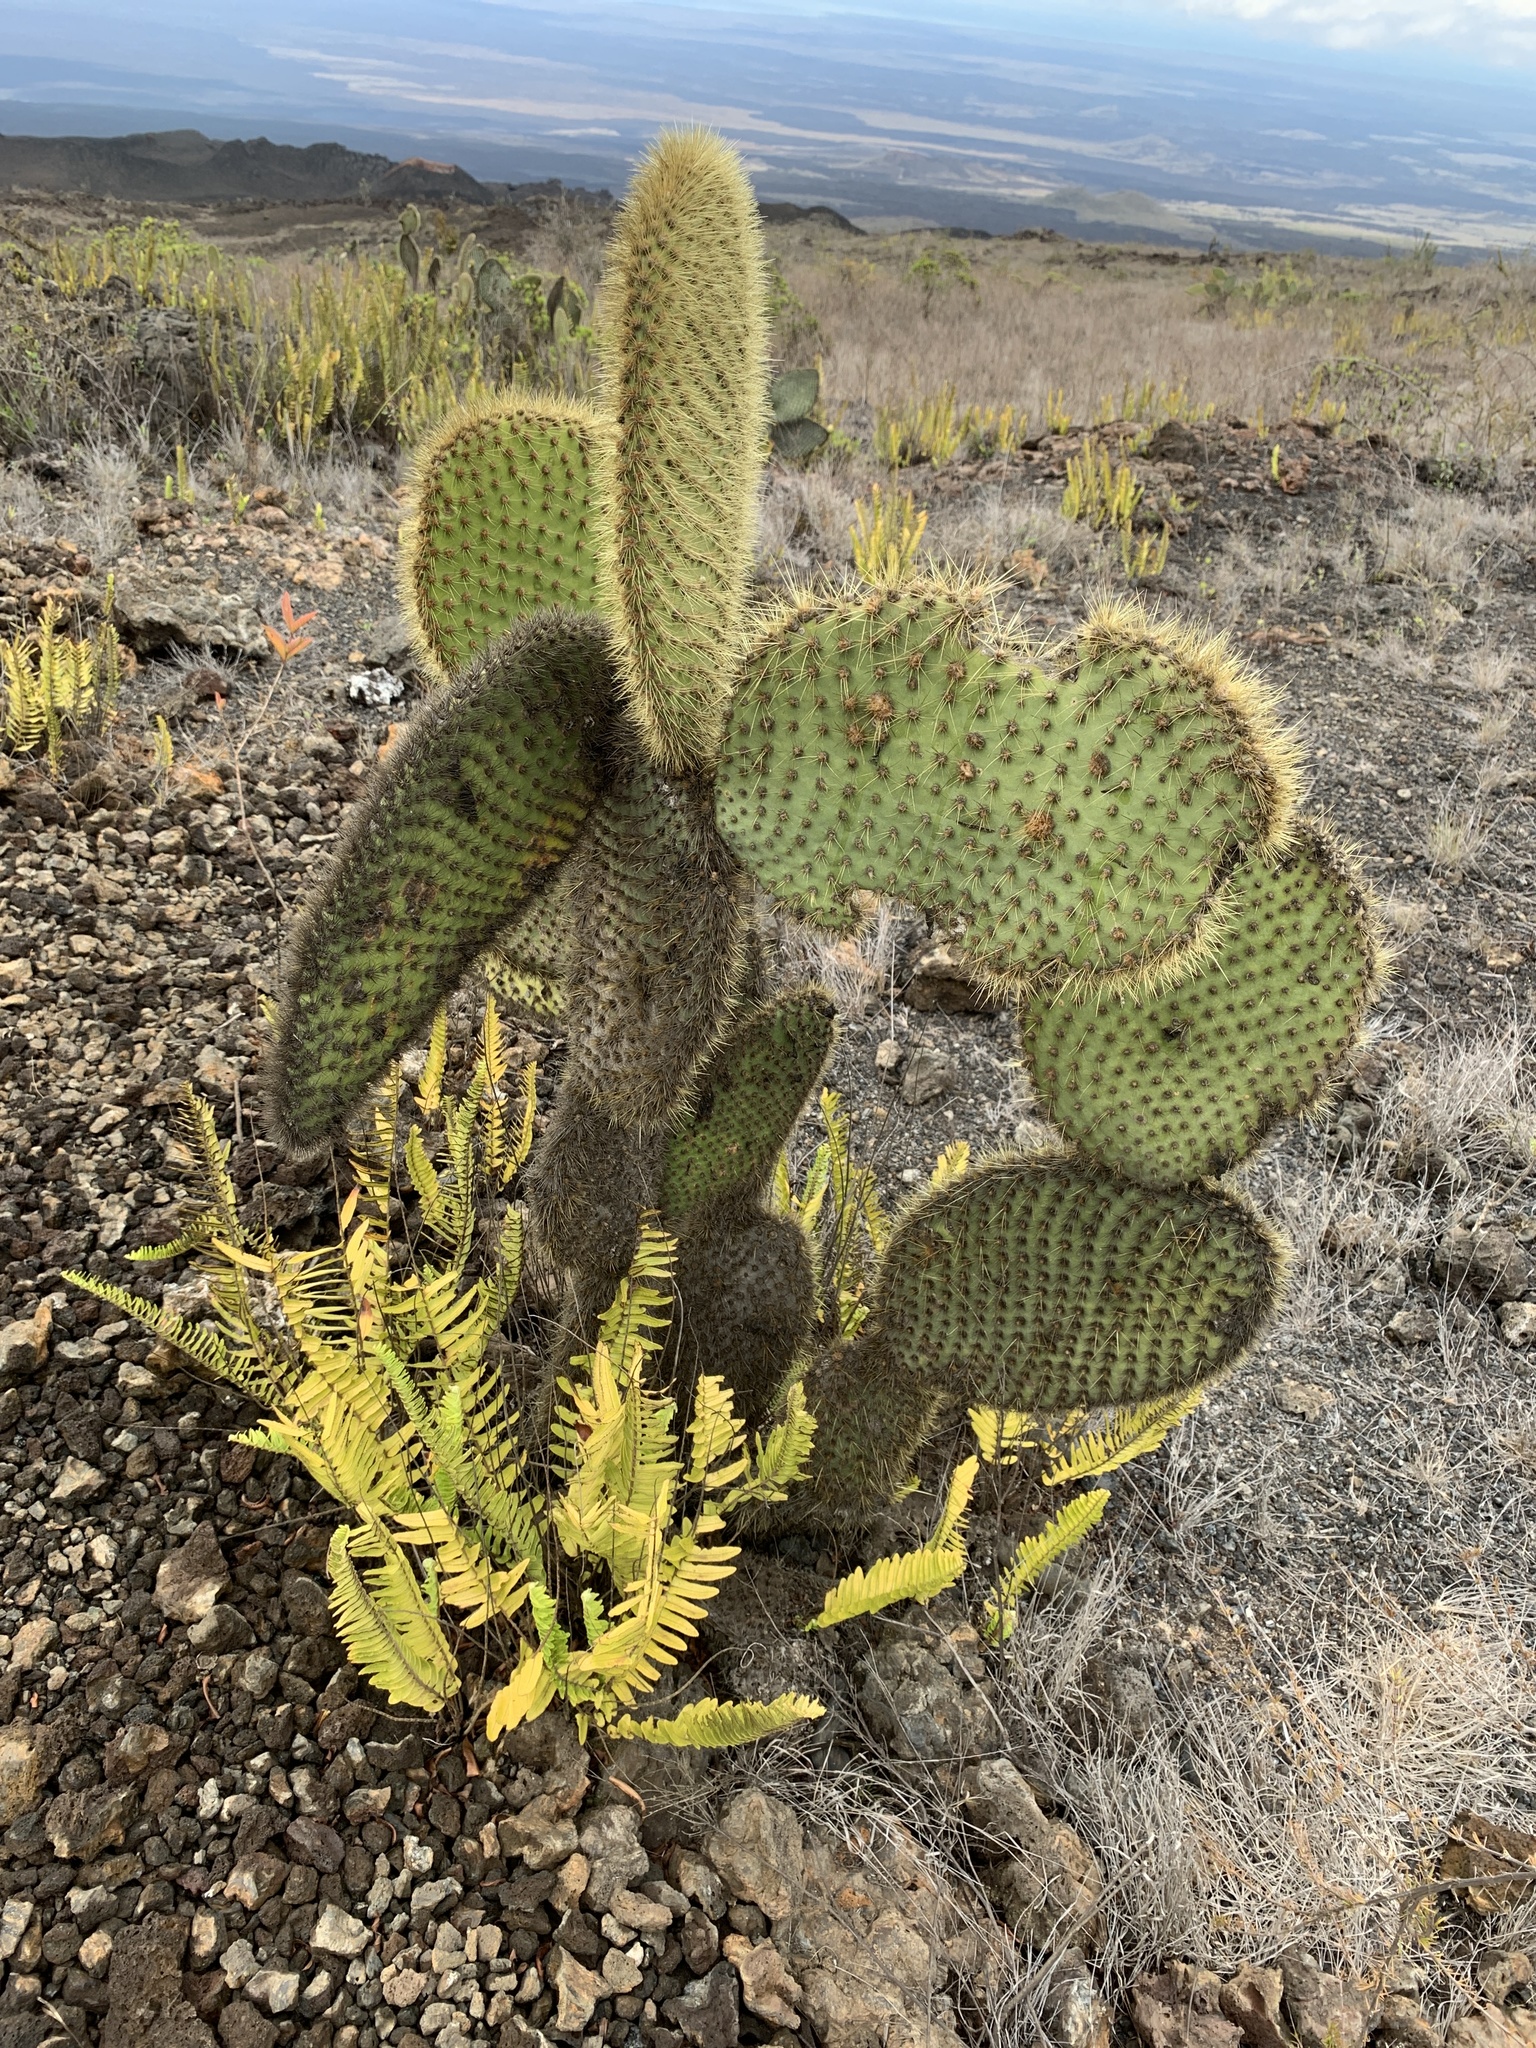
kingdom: Plantae
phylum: Tracheophyta
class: Magnoliopsida
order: Caryophyllales
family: Cactaceae
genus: Opuntia
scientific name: Opuntia galapageia
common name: Galápagos prickly pear
